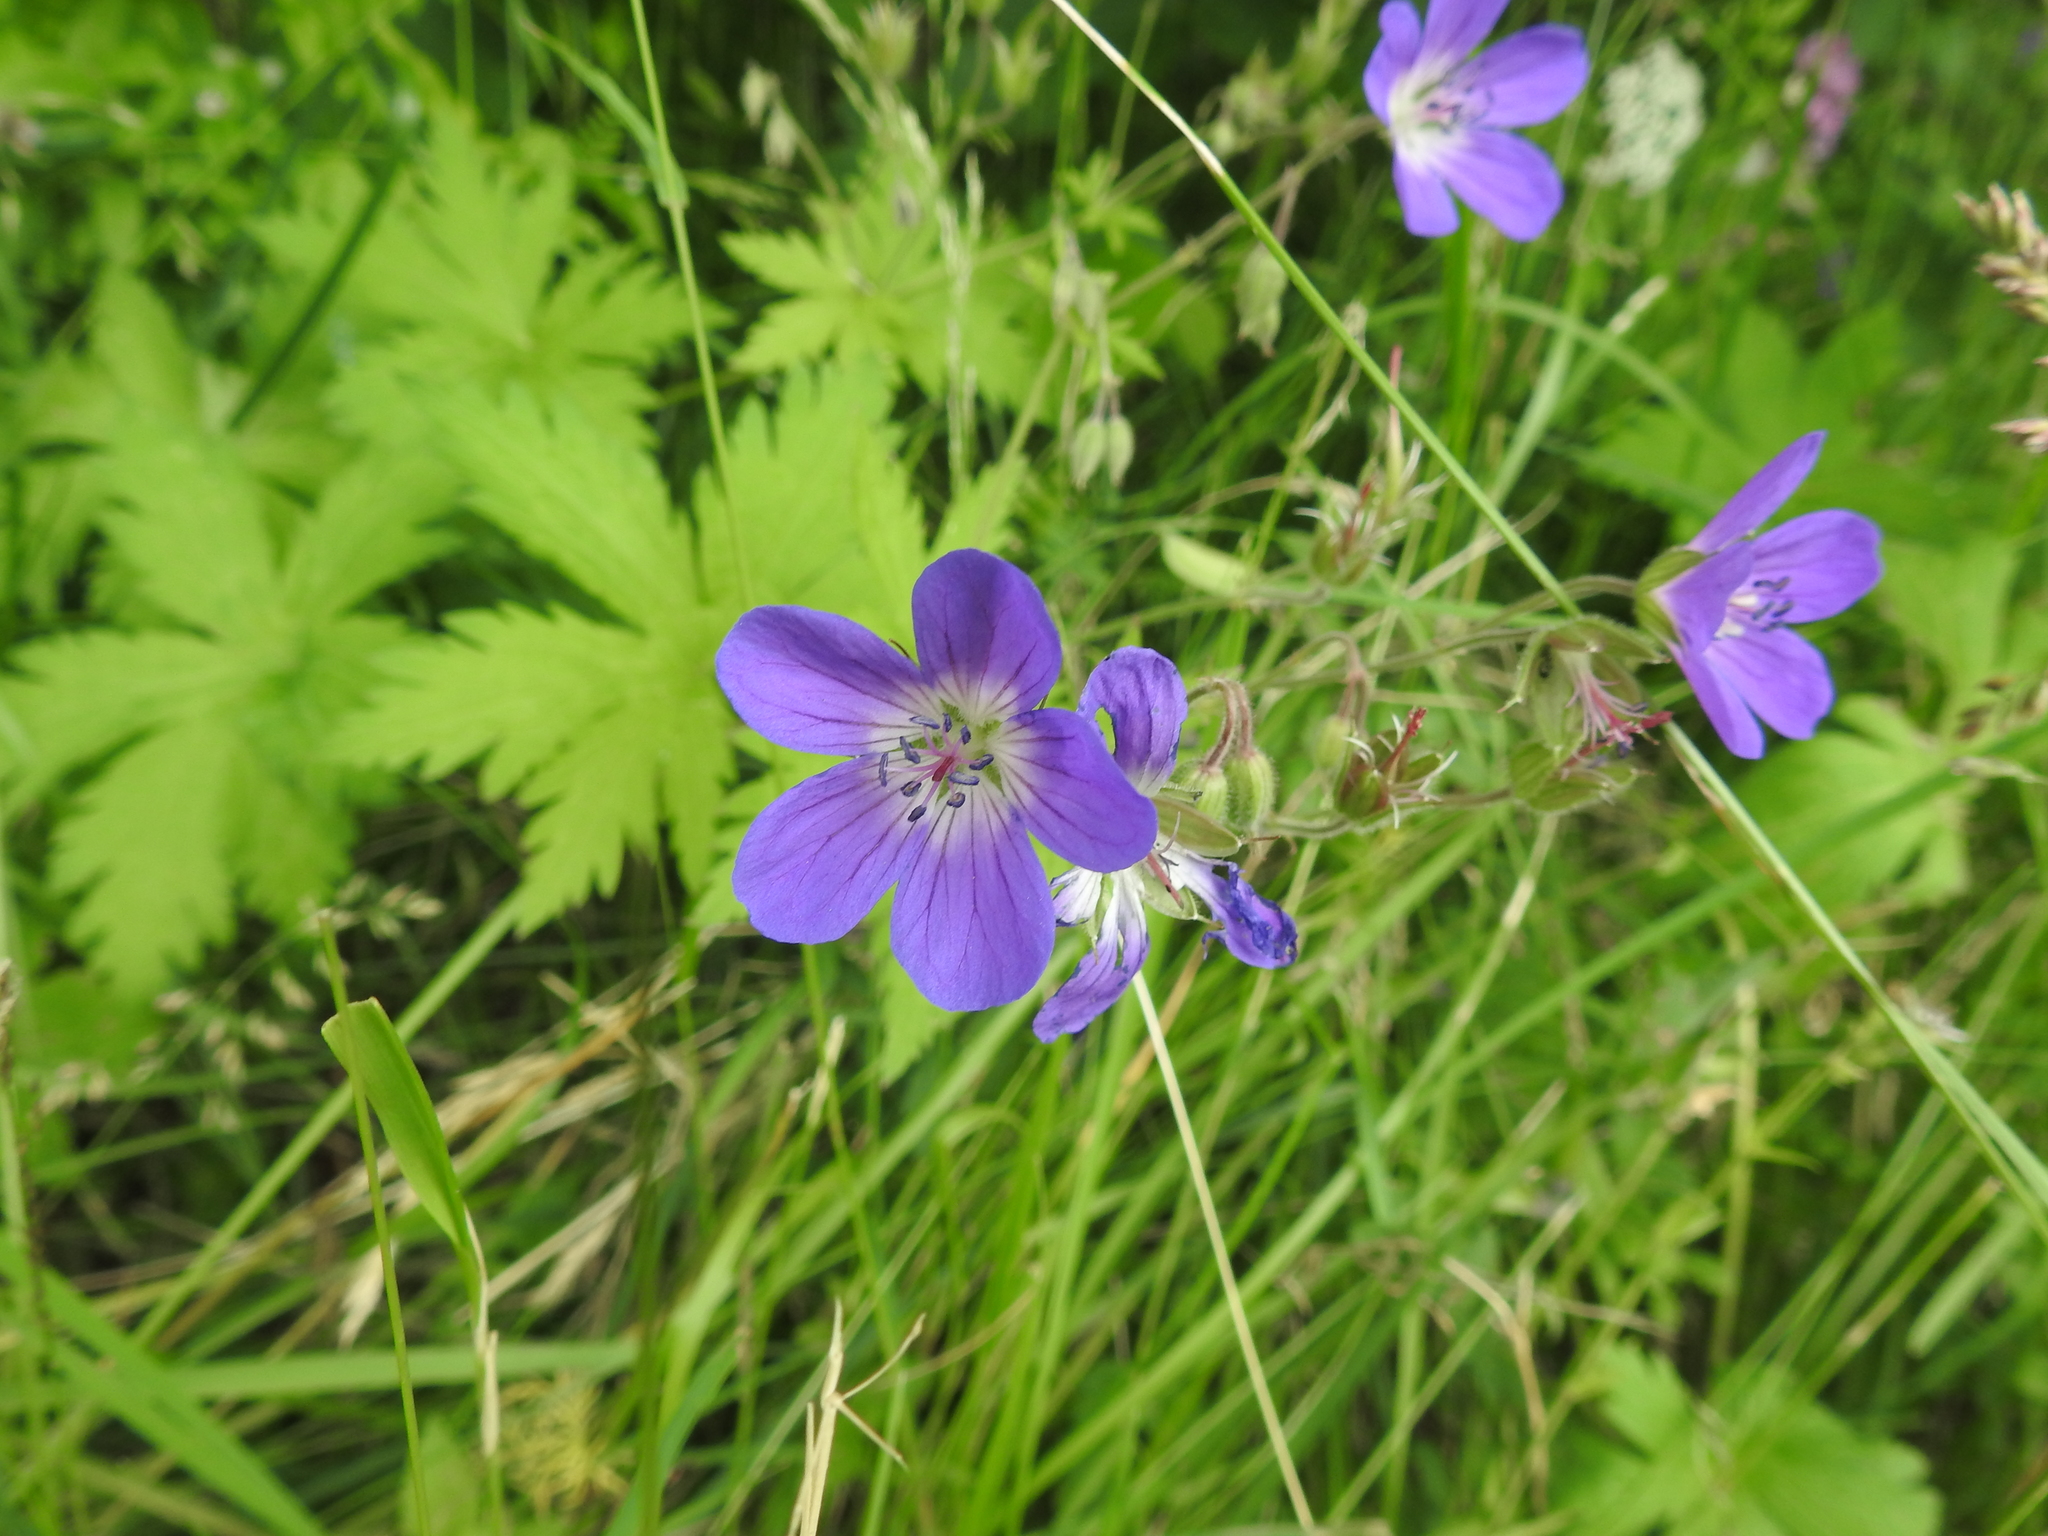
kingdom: Plantae
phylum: Tracheophyta
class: Magnoliopsida
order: Geraniales
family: Geraniaceae
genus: Geranium
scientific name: Geranium sylvaticum
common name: Wood crane's-bill
